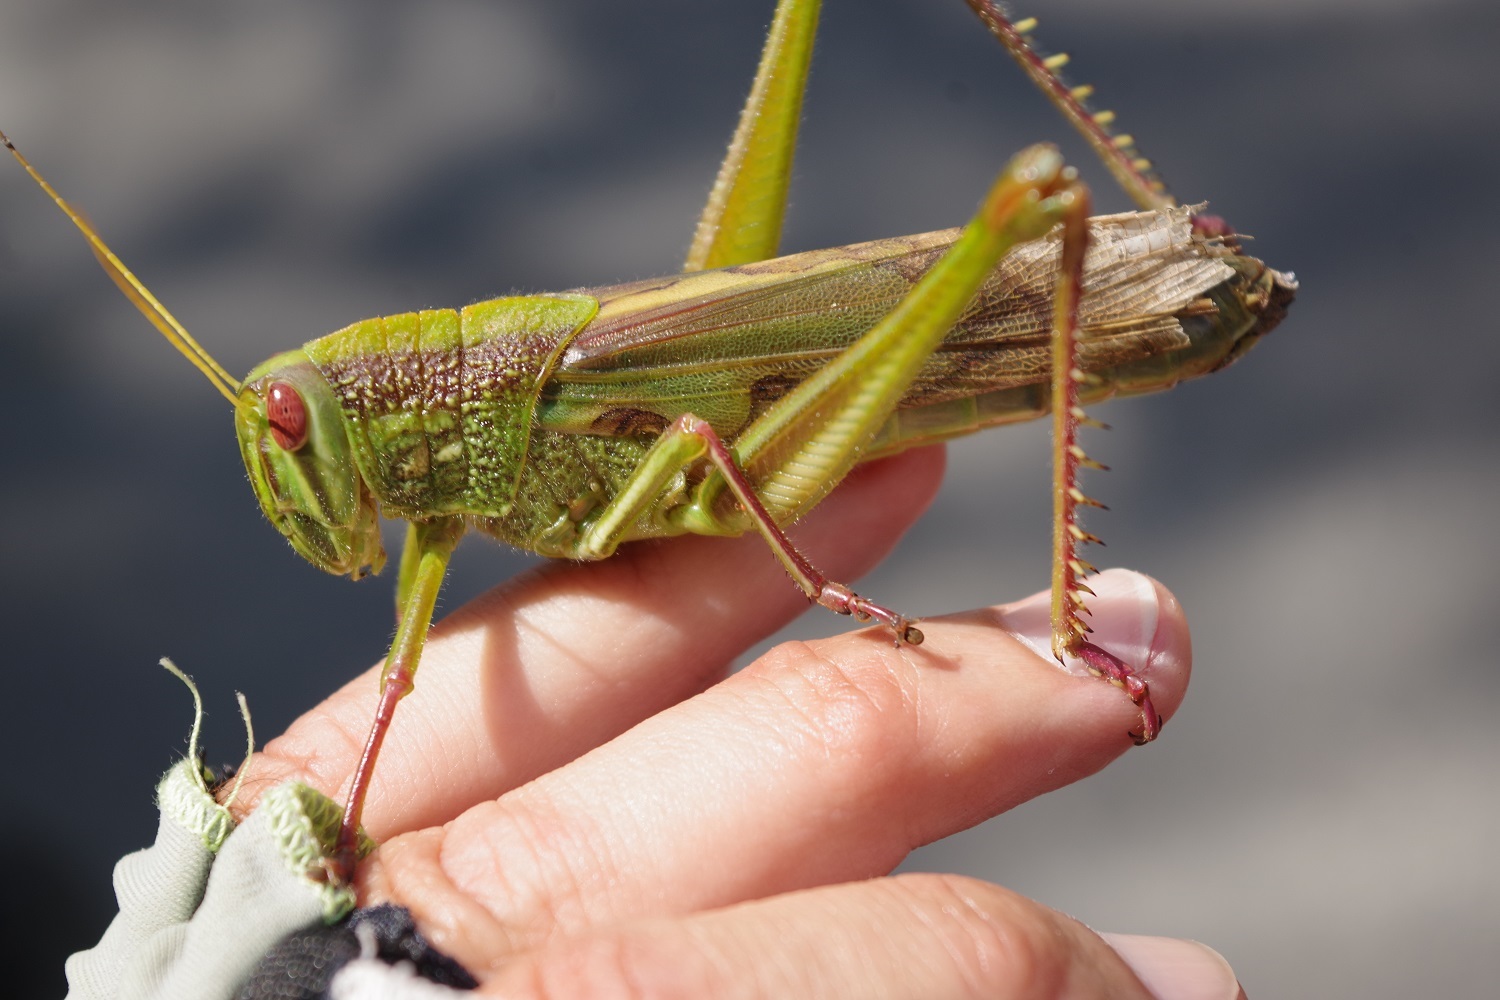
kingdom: Animalia
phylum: Arthropoda
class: Insecta
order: Orthoptera
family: Acrididae
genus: Chondracris
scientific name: Chondracris rosea
